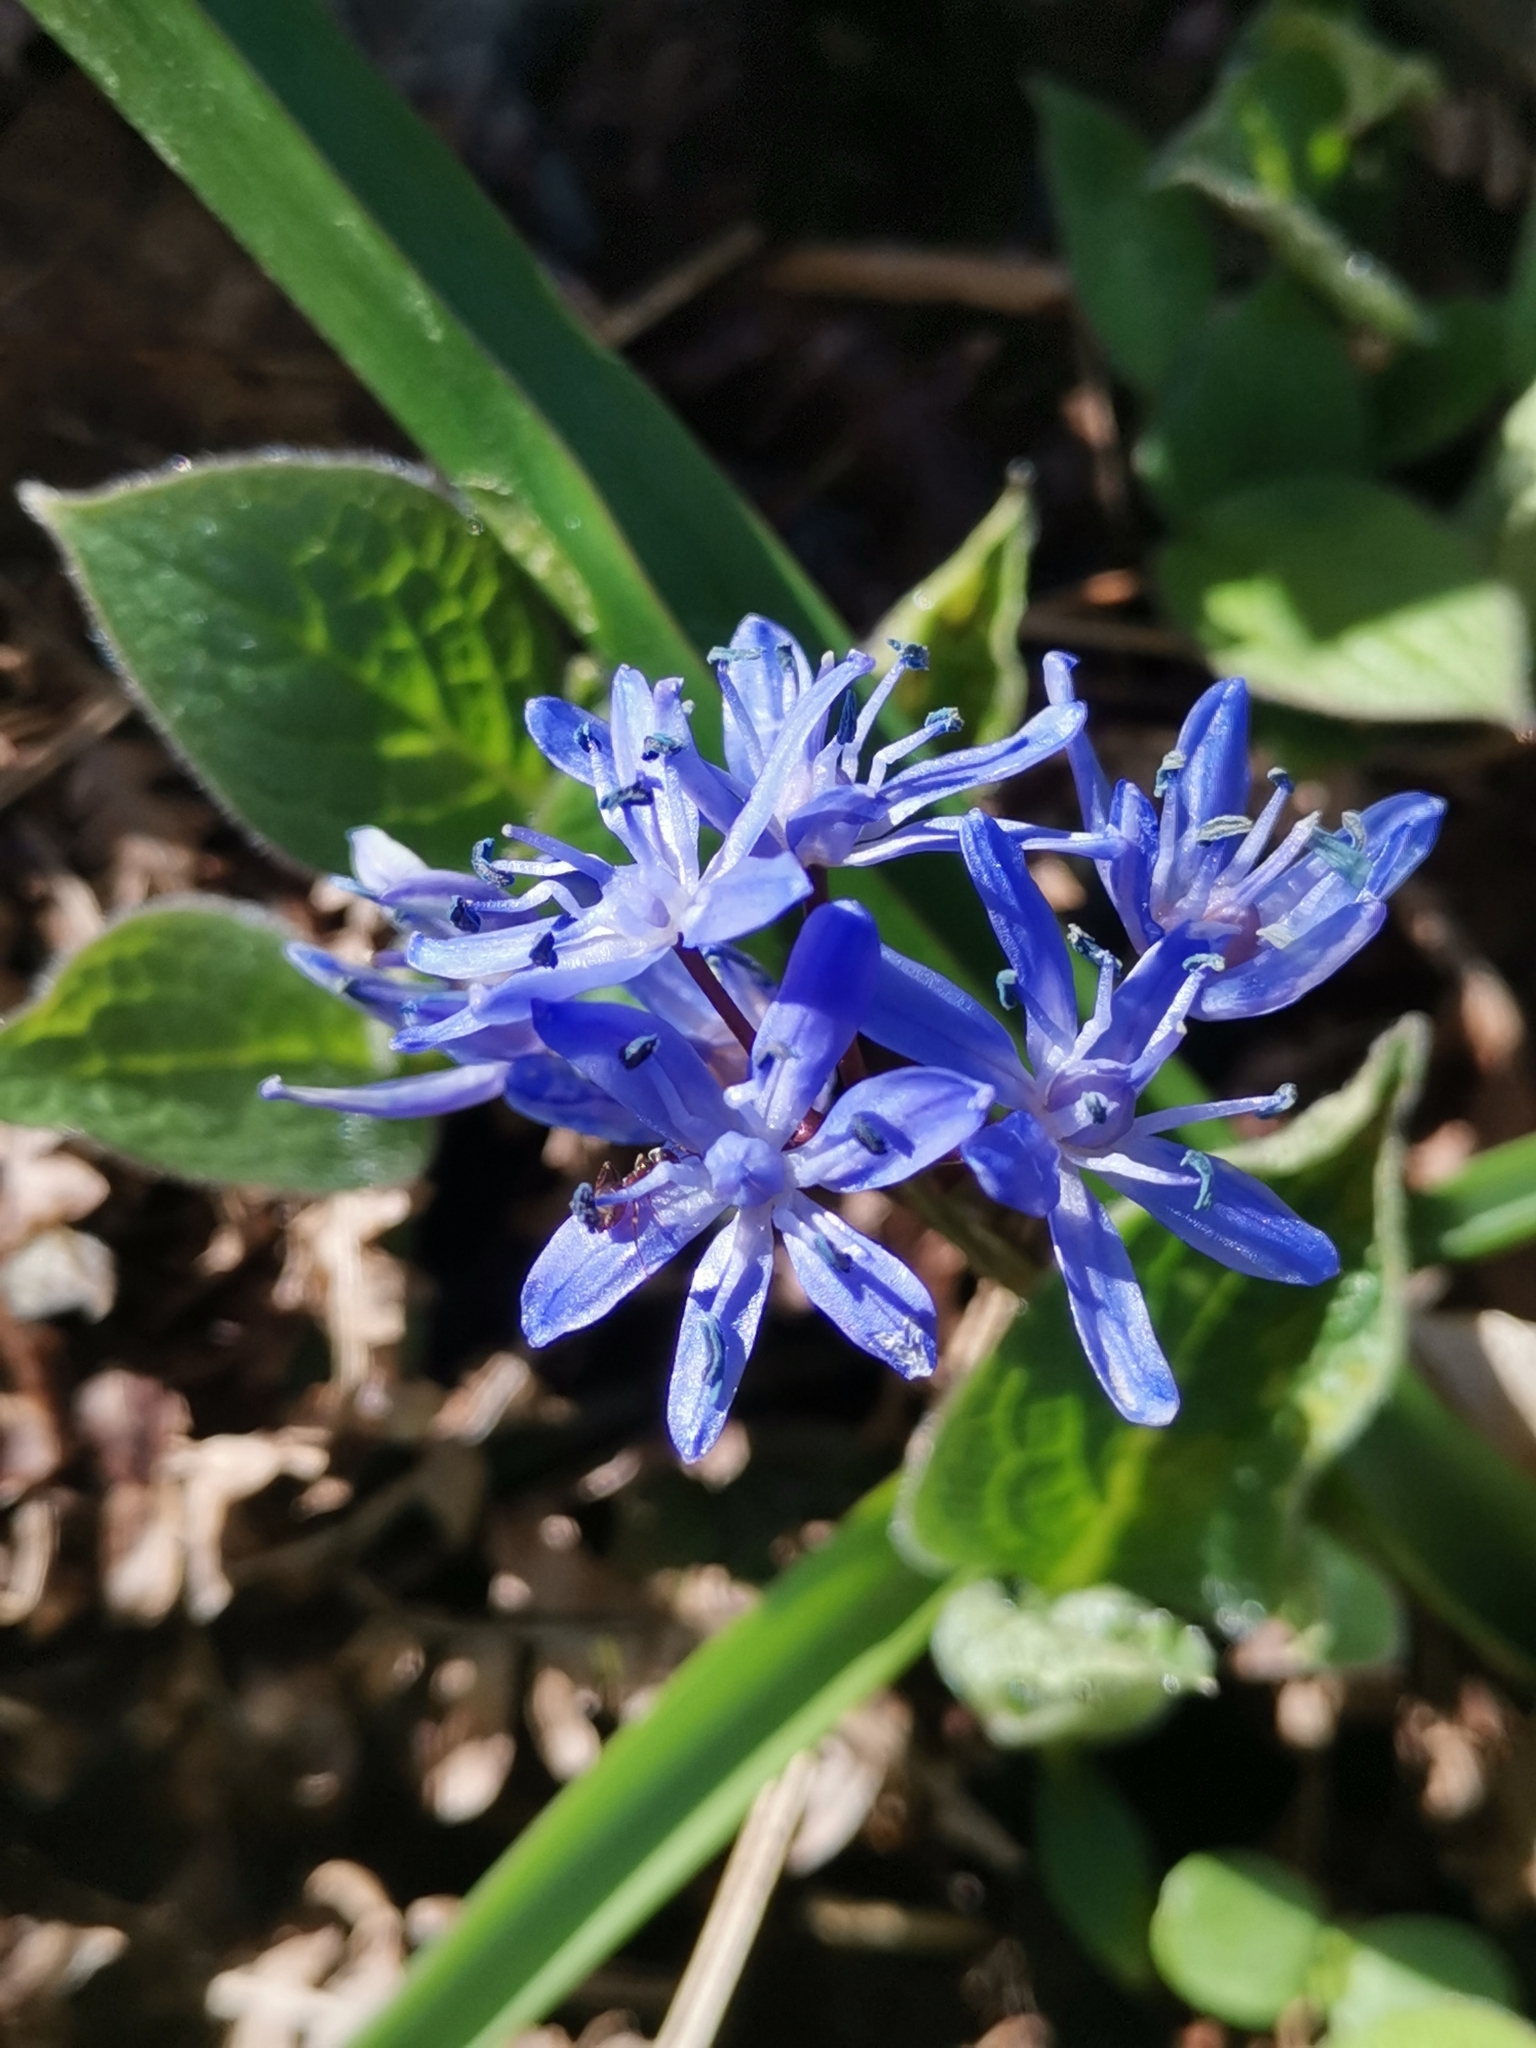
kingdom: Plantae
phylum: Tracheophyta
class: Liliopsida
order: Asparagales
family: Asparagaceae
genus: Scilla
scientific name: Scilla bifolia
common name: Alpine squill
